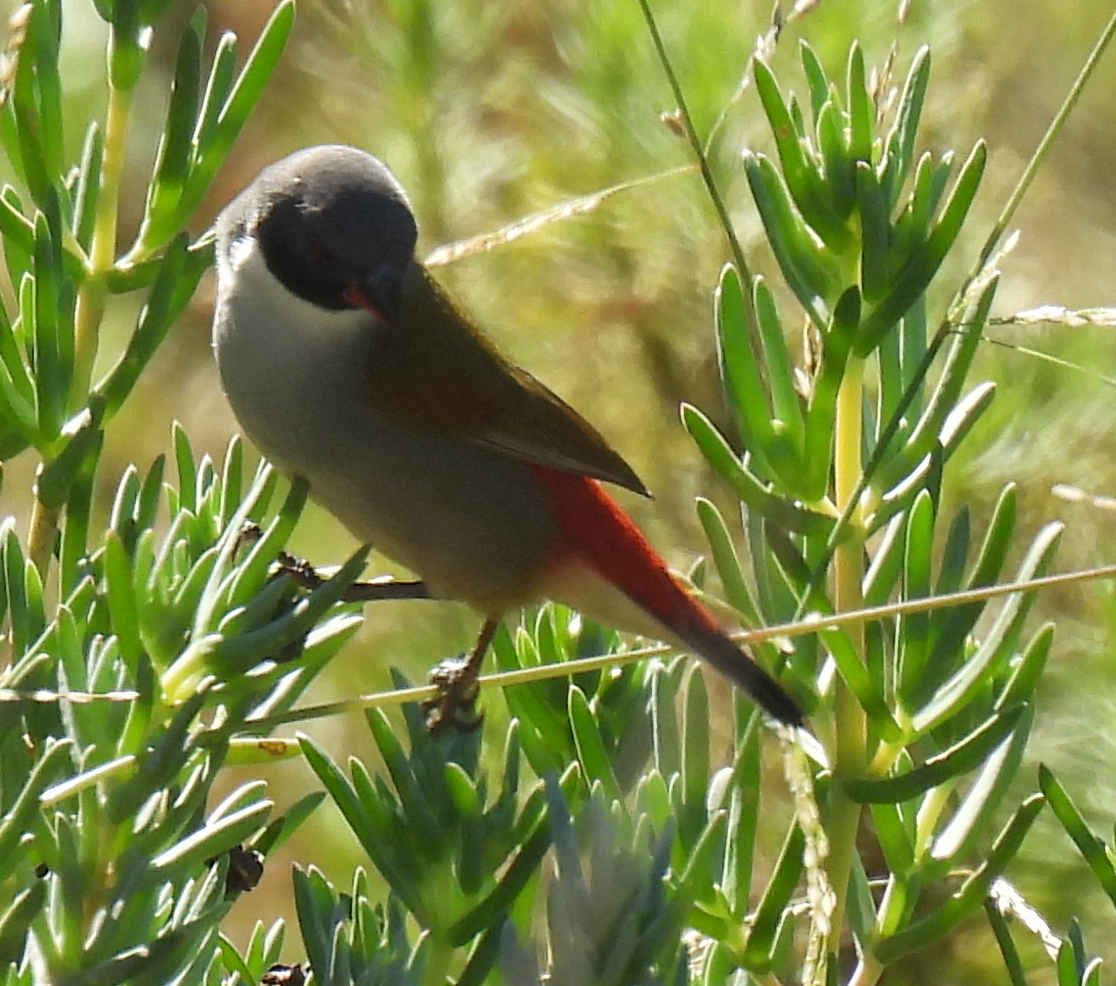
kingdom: Animalia
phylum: Chordata
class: Aves
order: Passeriformes
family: Estrildidae
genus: Coccopygia
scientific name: Coccopygia melanotis
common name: Swee waxbill
